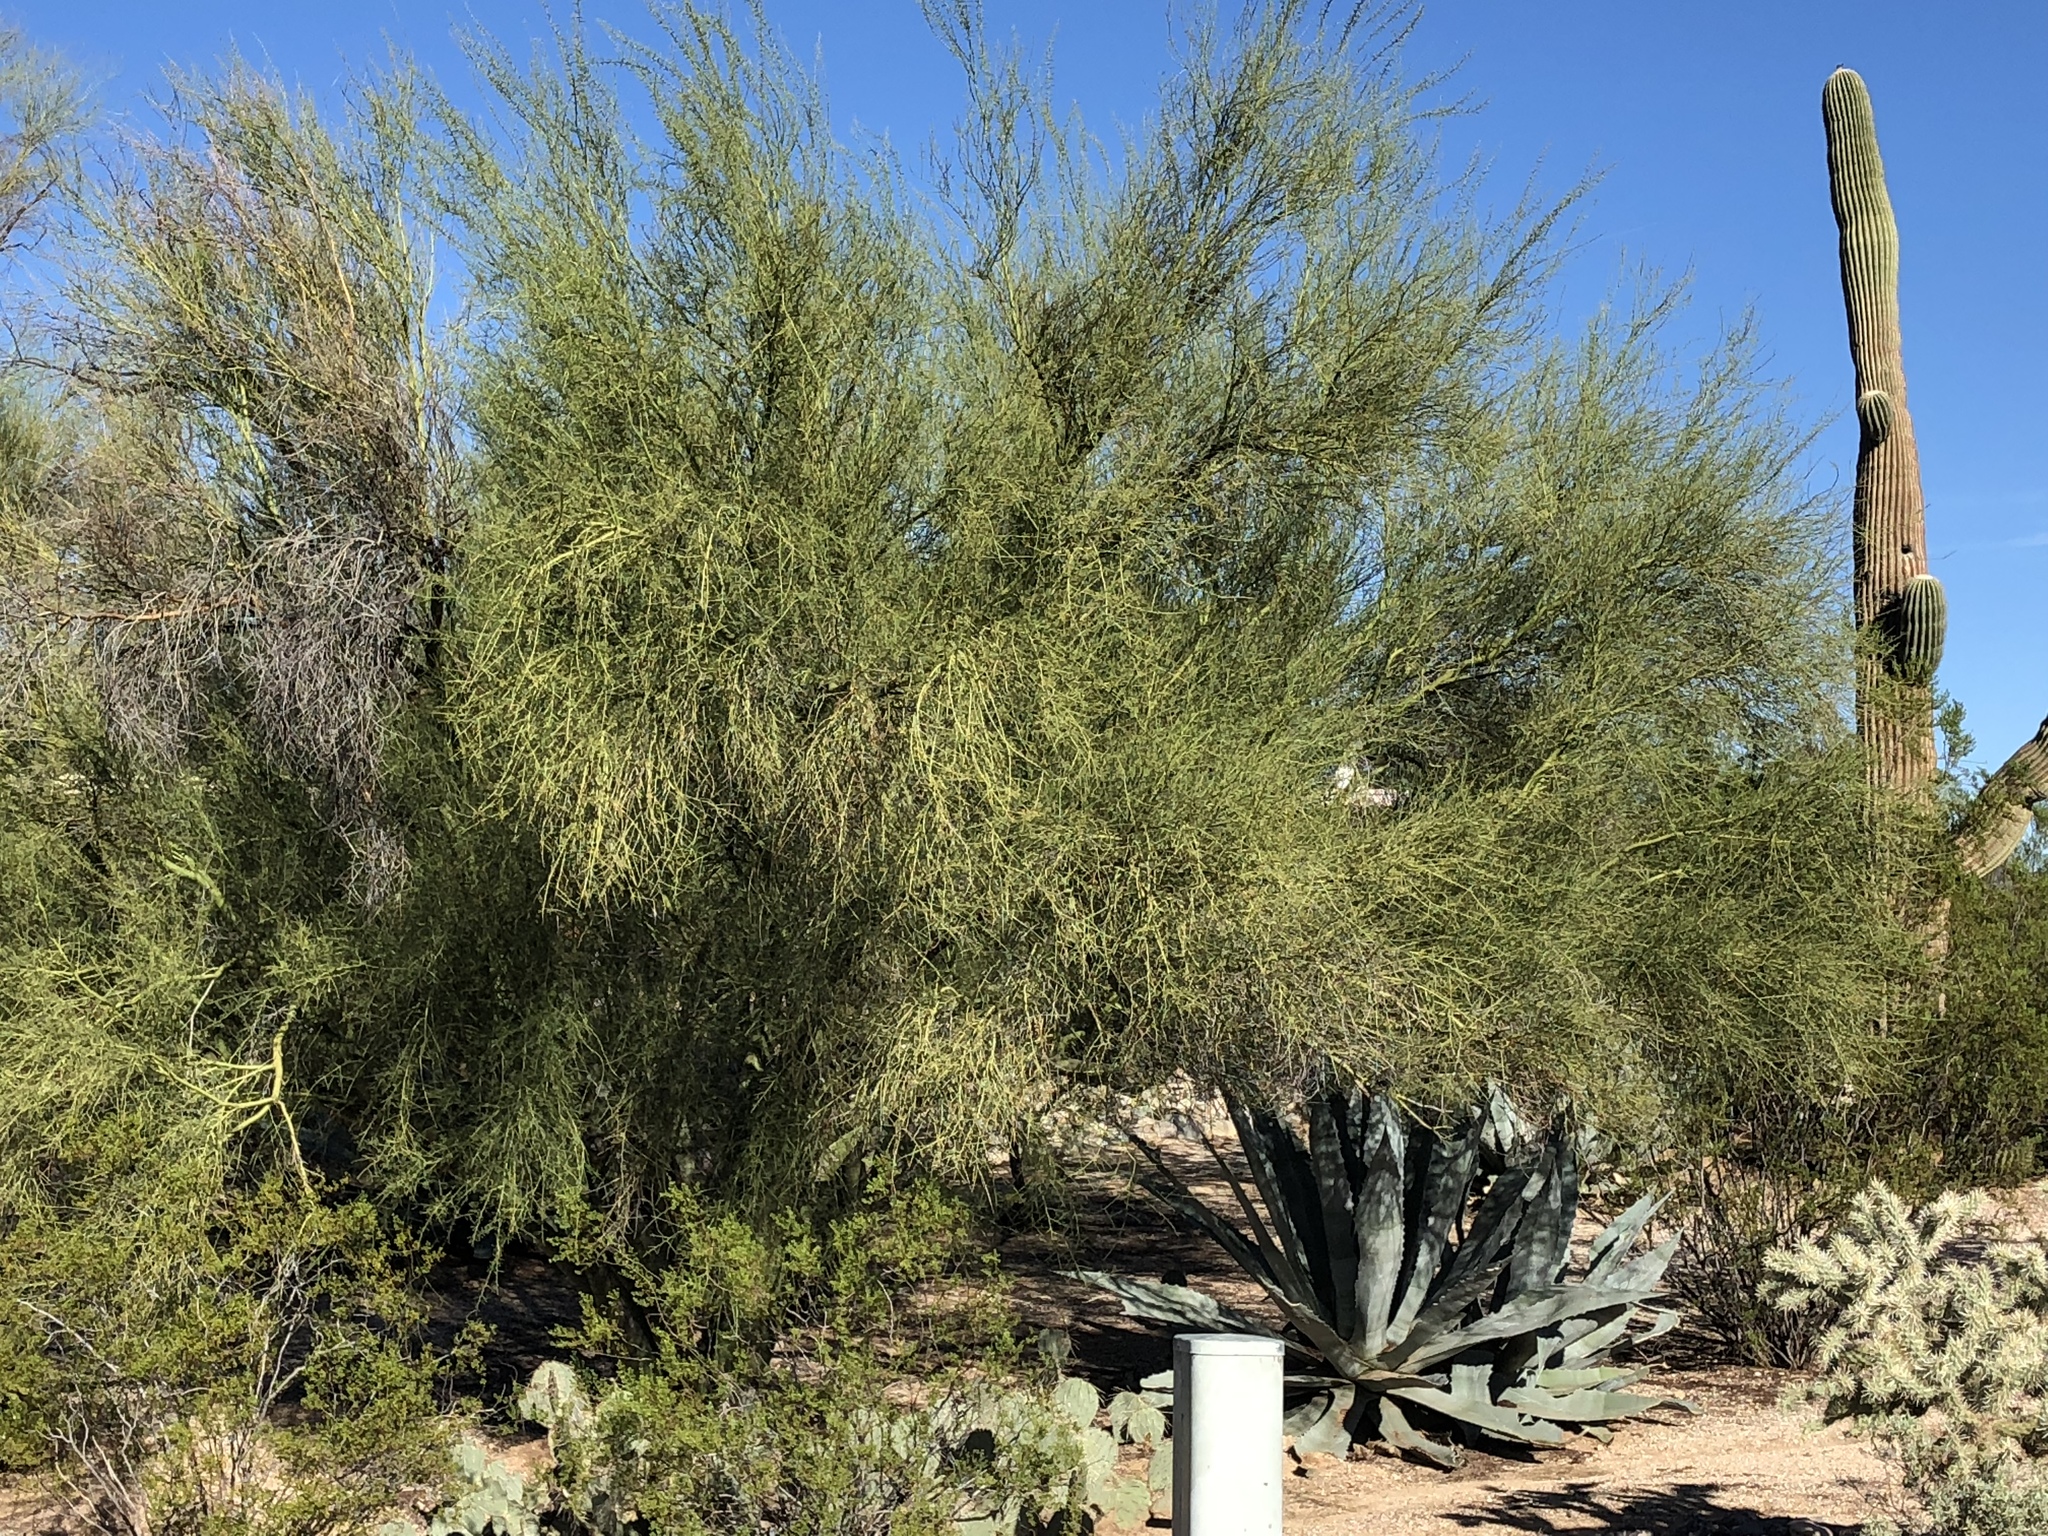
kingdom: Plantae
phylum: Tracheophyta
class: Magnoliopsida
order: Fabales
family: Fabaceae
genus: Parkinsonia
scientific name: Parkinsonia microphylla
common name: Yellow paloverde
